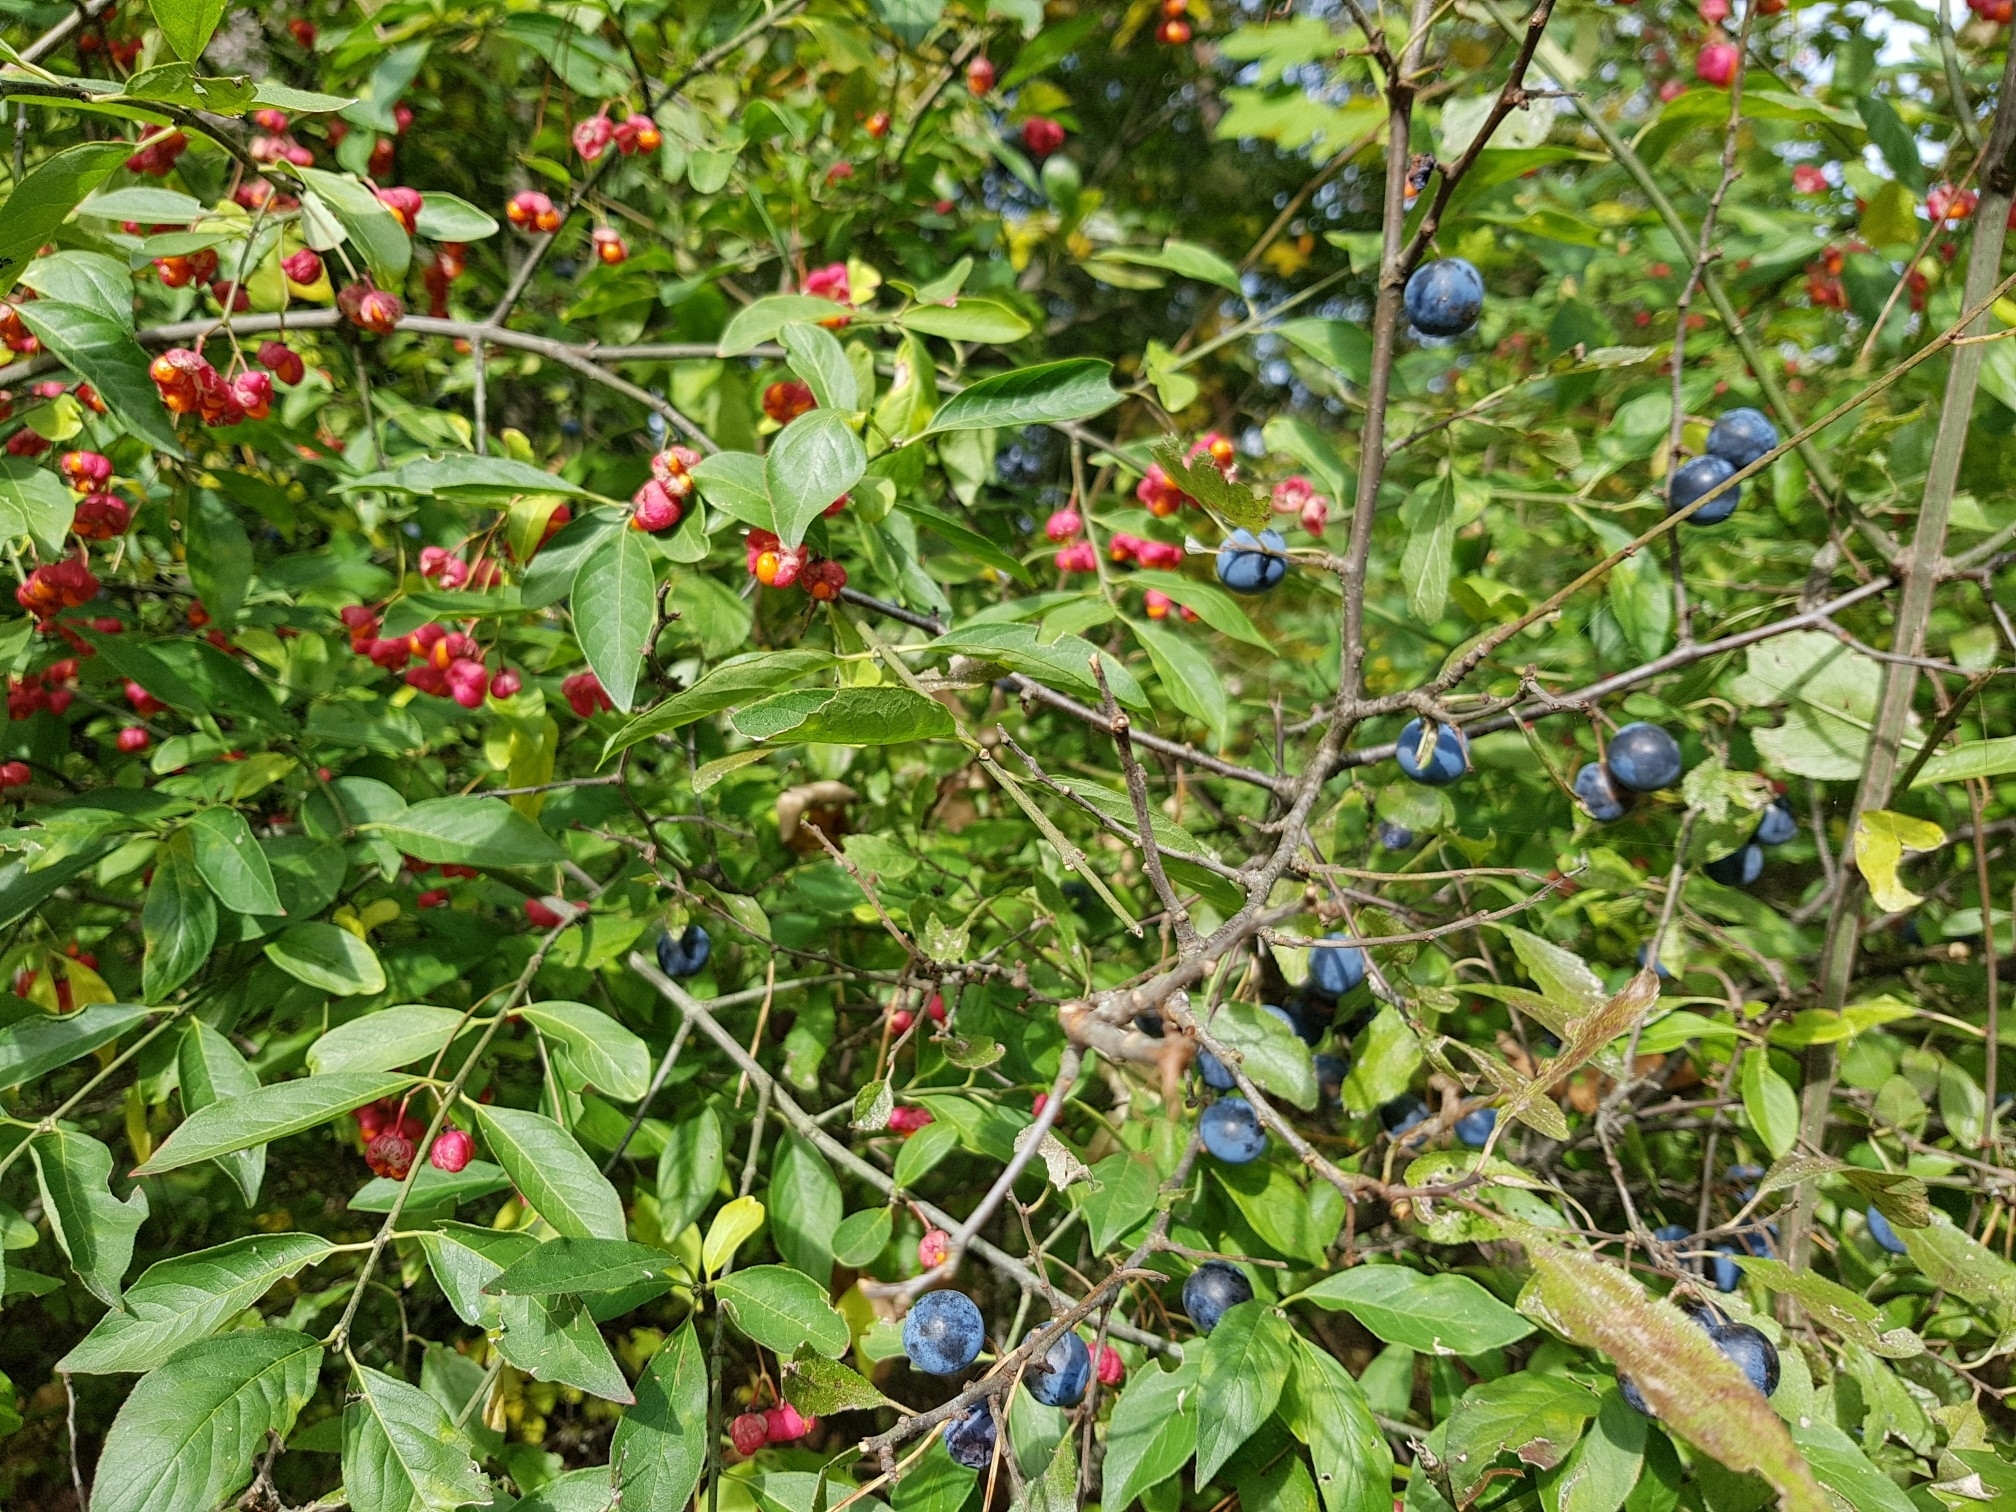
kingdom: Plantae
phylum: Tracheophyta
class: Magnoliopsida
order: Rosales
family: Rosaceae
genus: Prunus
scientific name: Prunus spinosa
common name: Blackthorn
